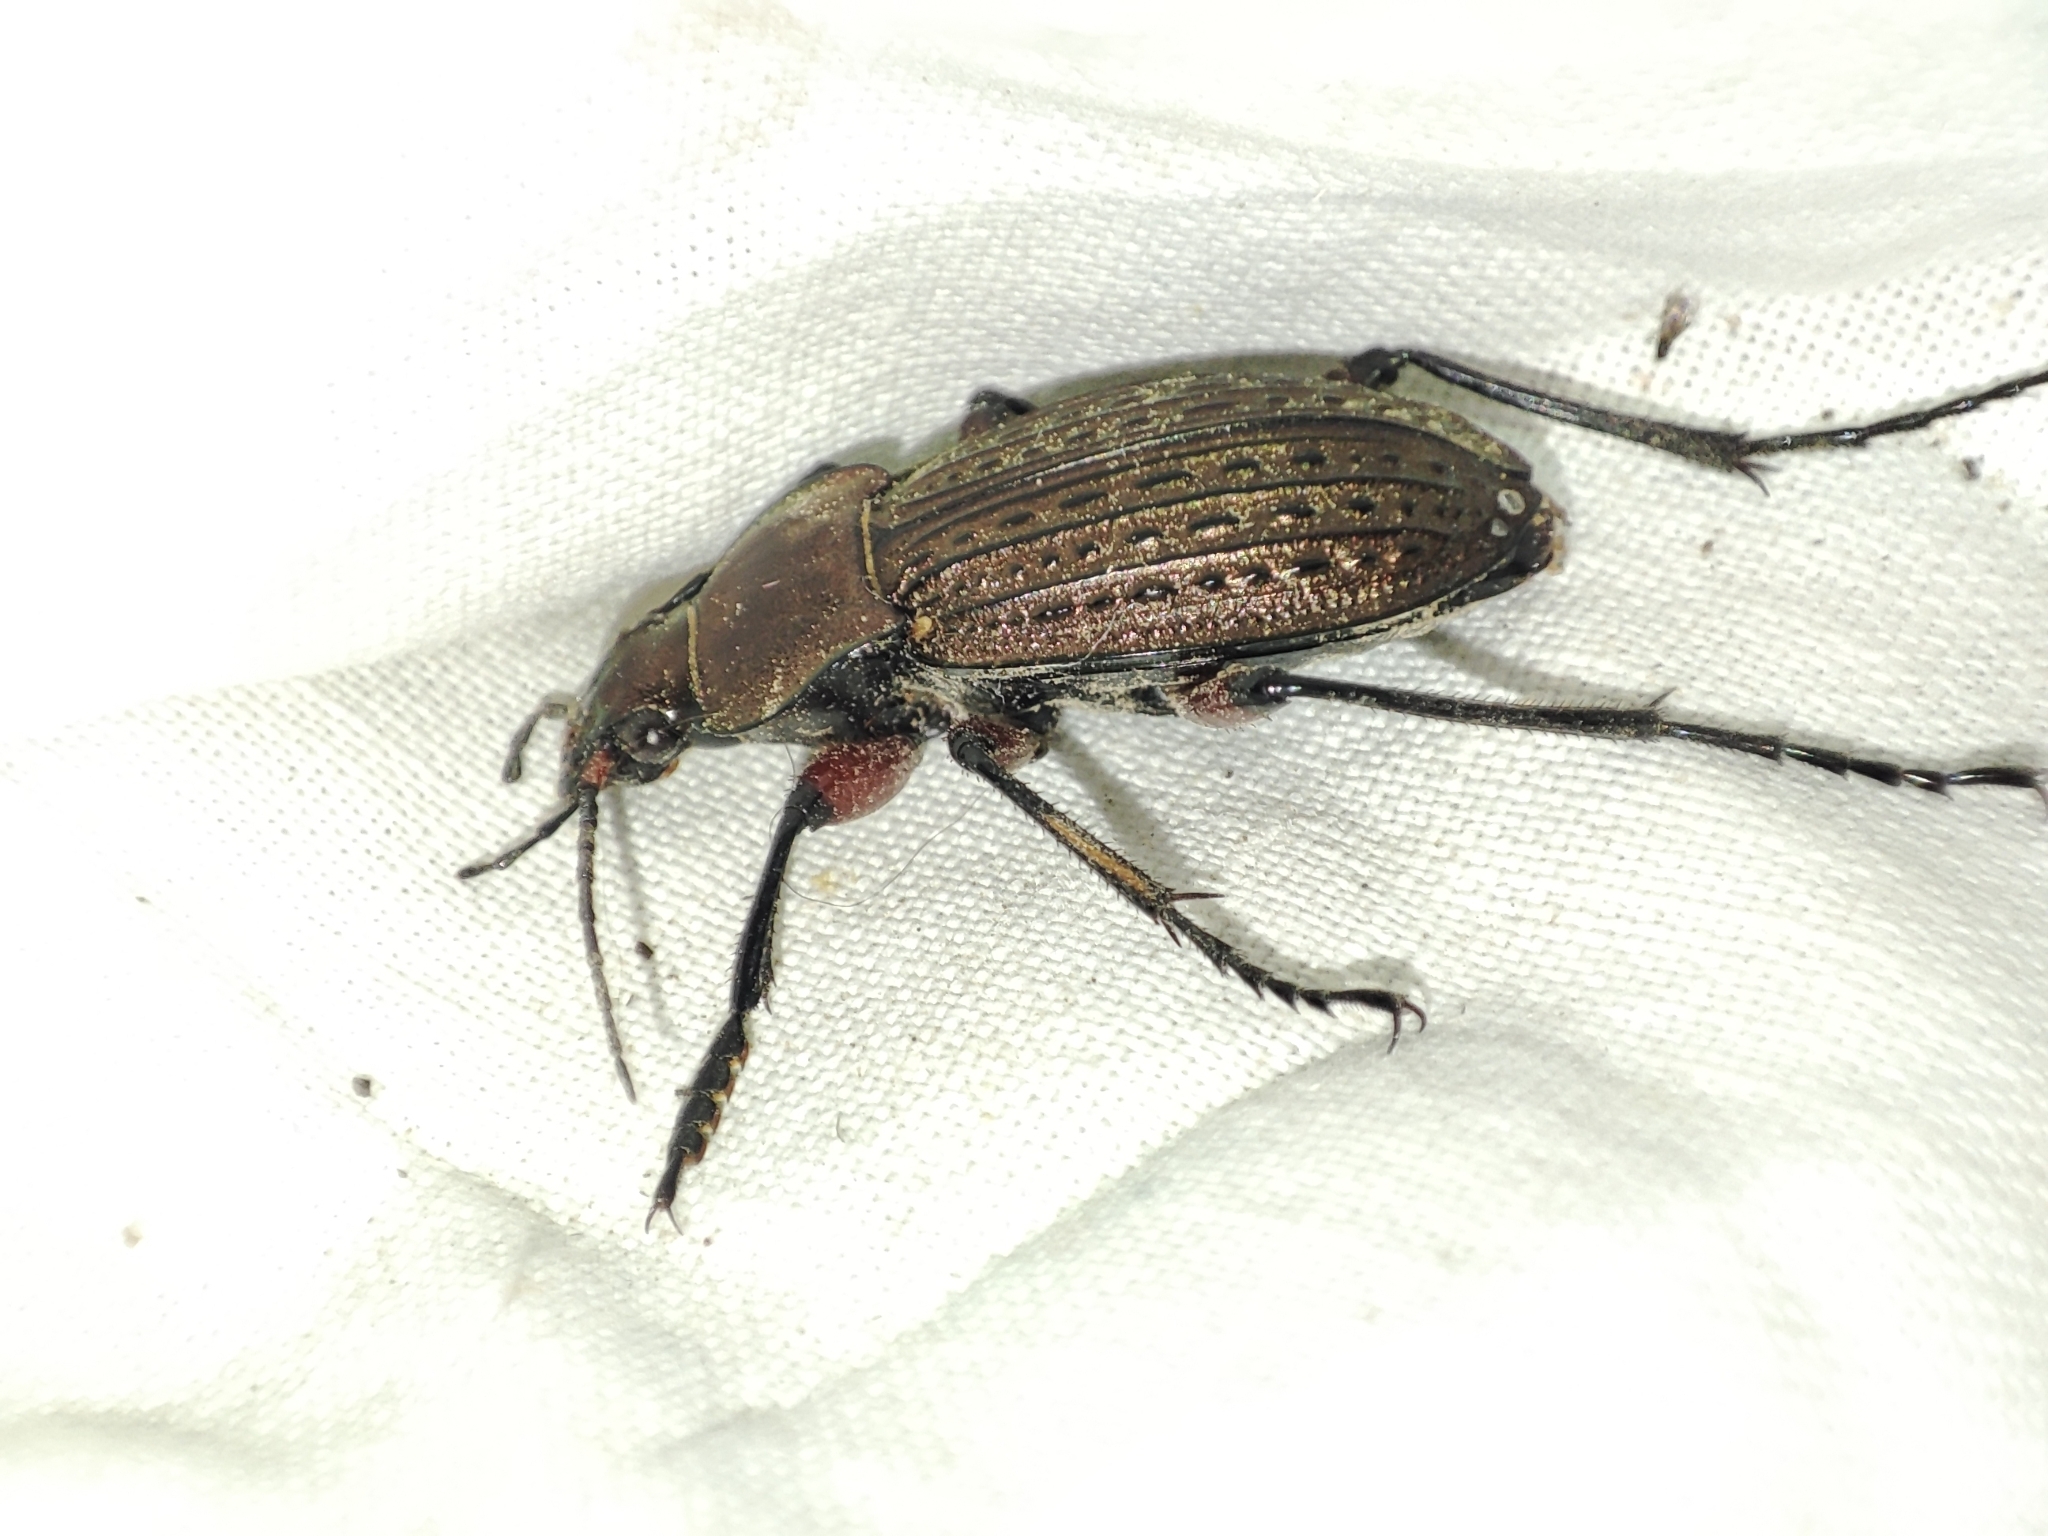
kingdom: Animalia
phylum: Arthropoda
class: Insecta
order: Coleoptera
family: Carabidae
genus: Carabus
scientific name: Carabus cancellatus
